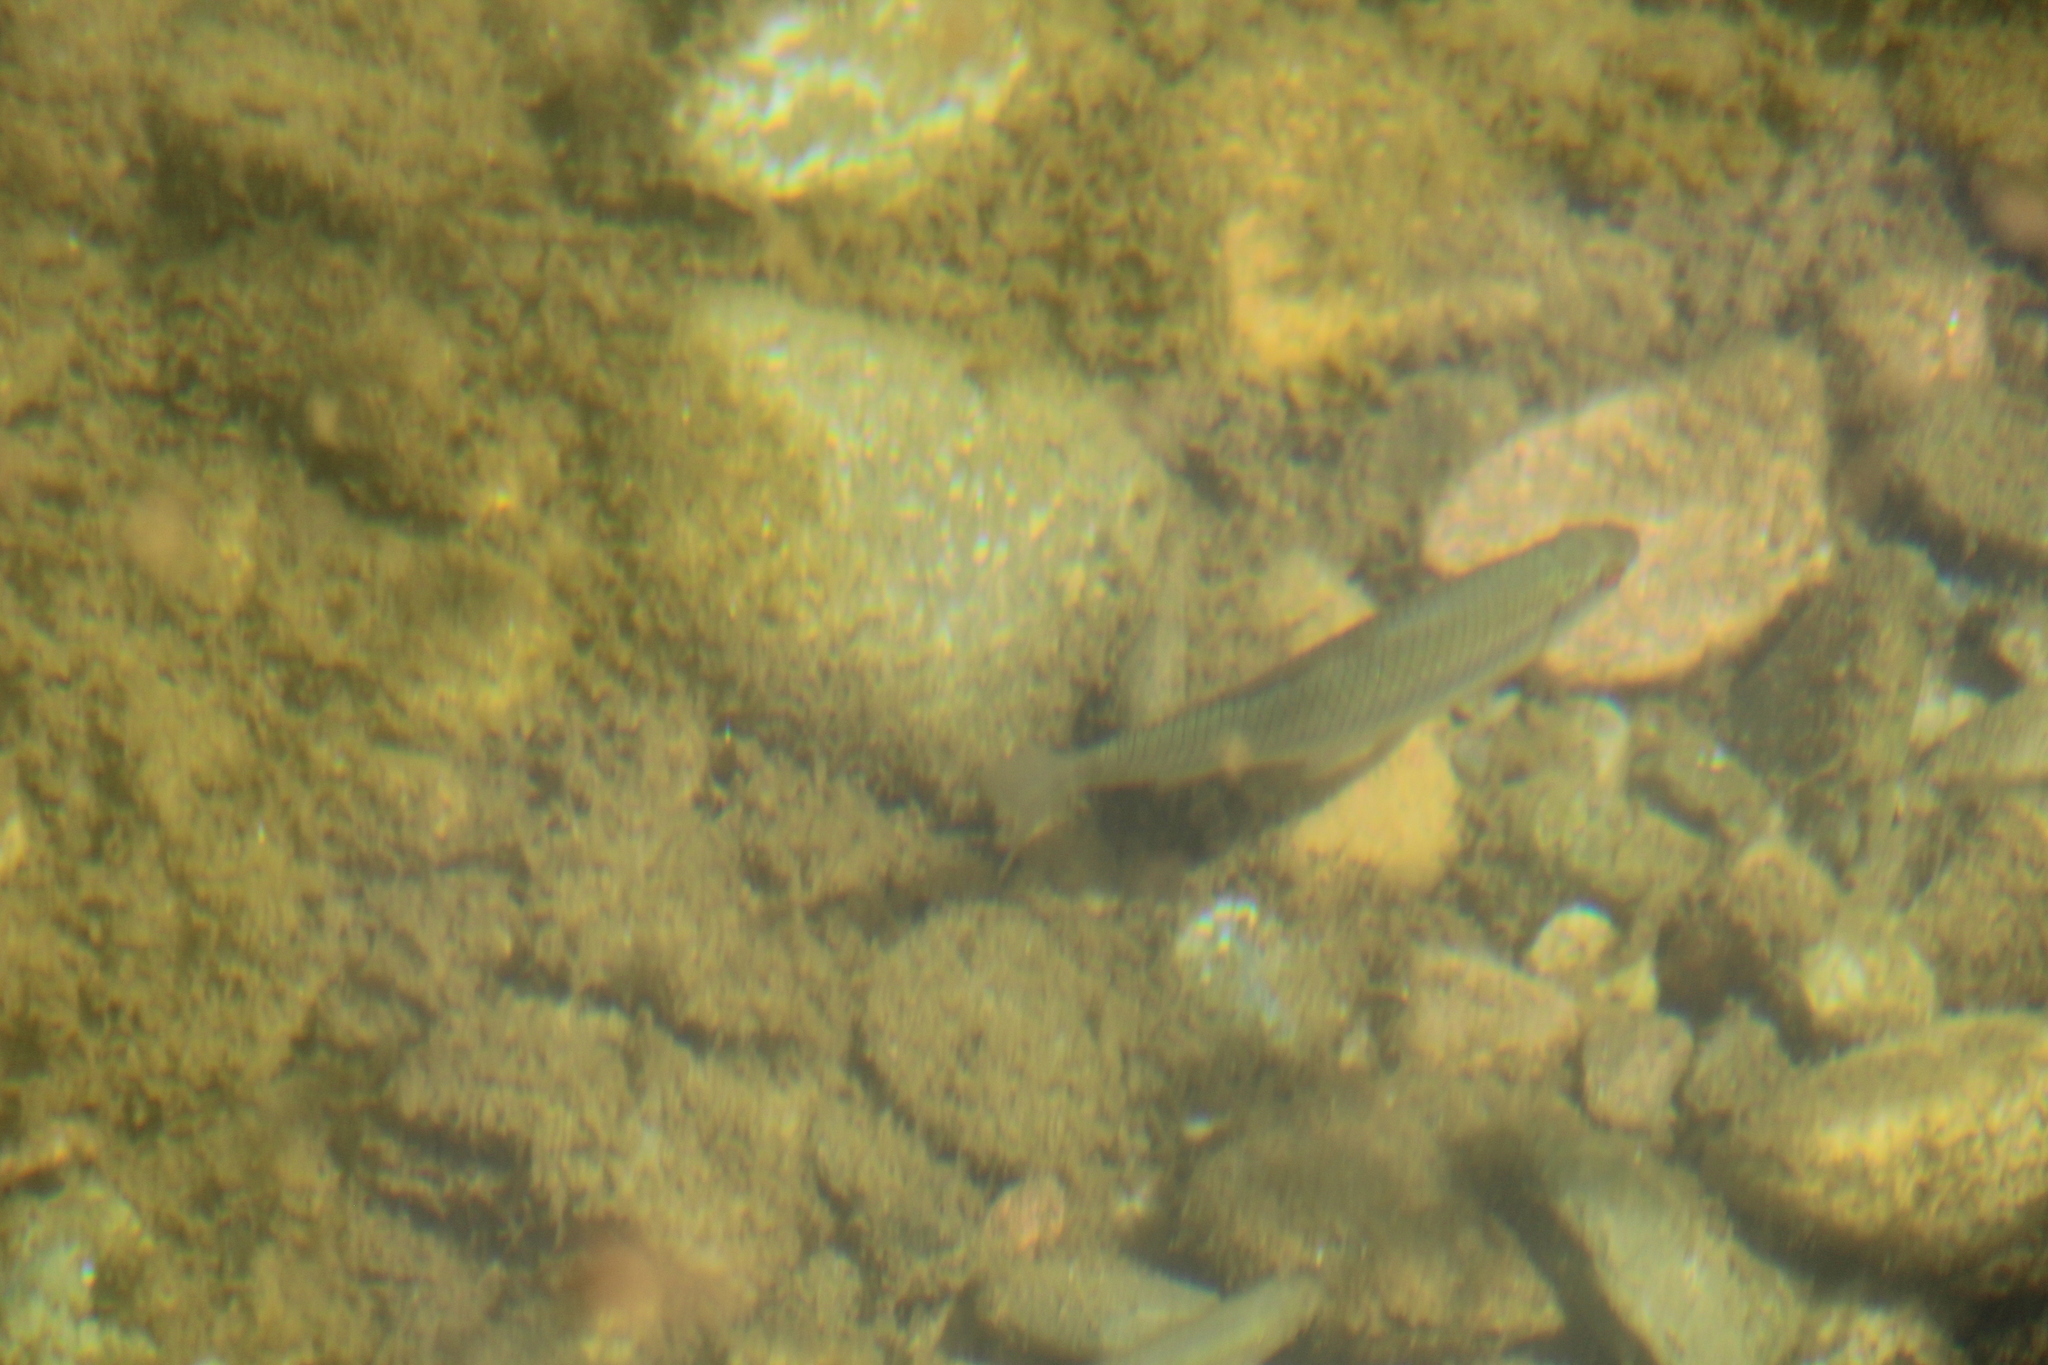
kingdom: Animalia
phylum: Chordata
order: Cypriniformes
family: Cyprinidae
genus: Leucos
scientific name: Leucos aula
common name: Adriatic roach
